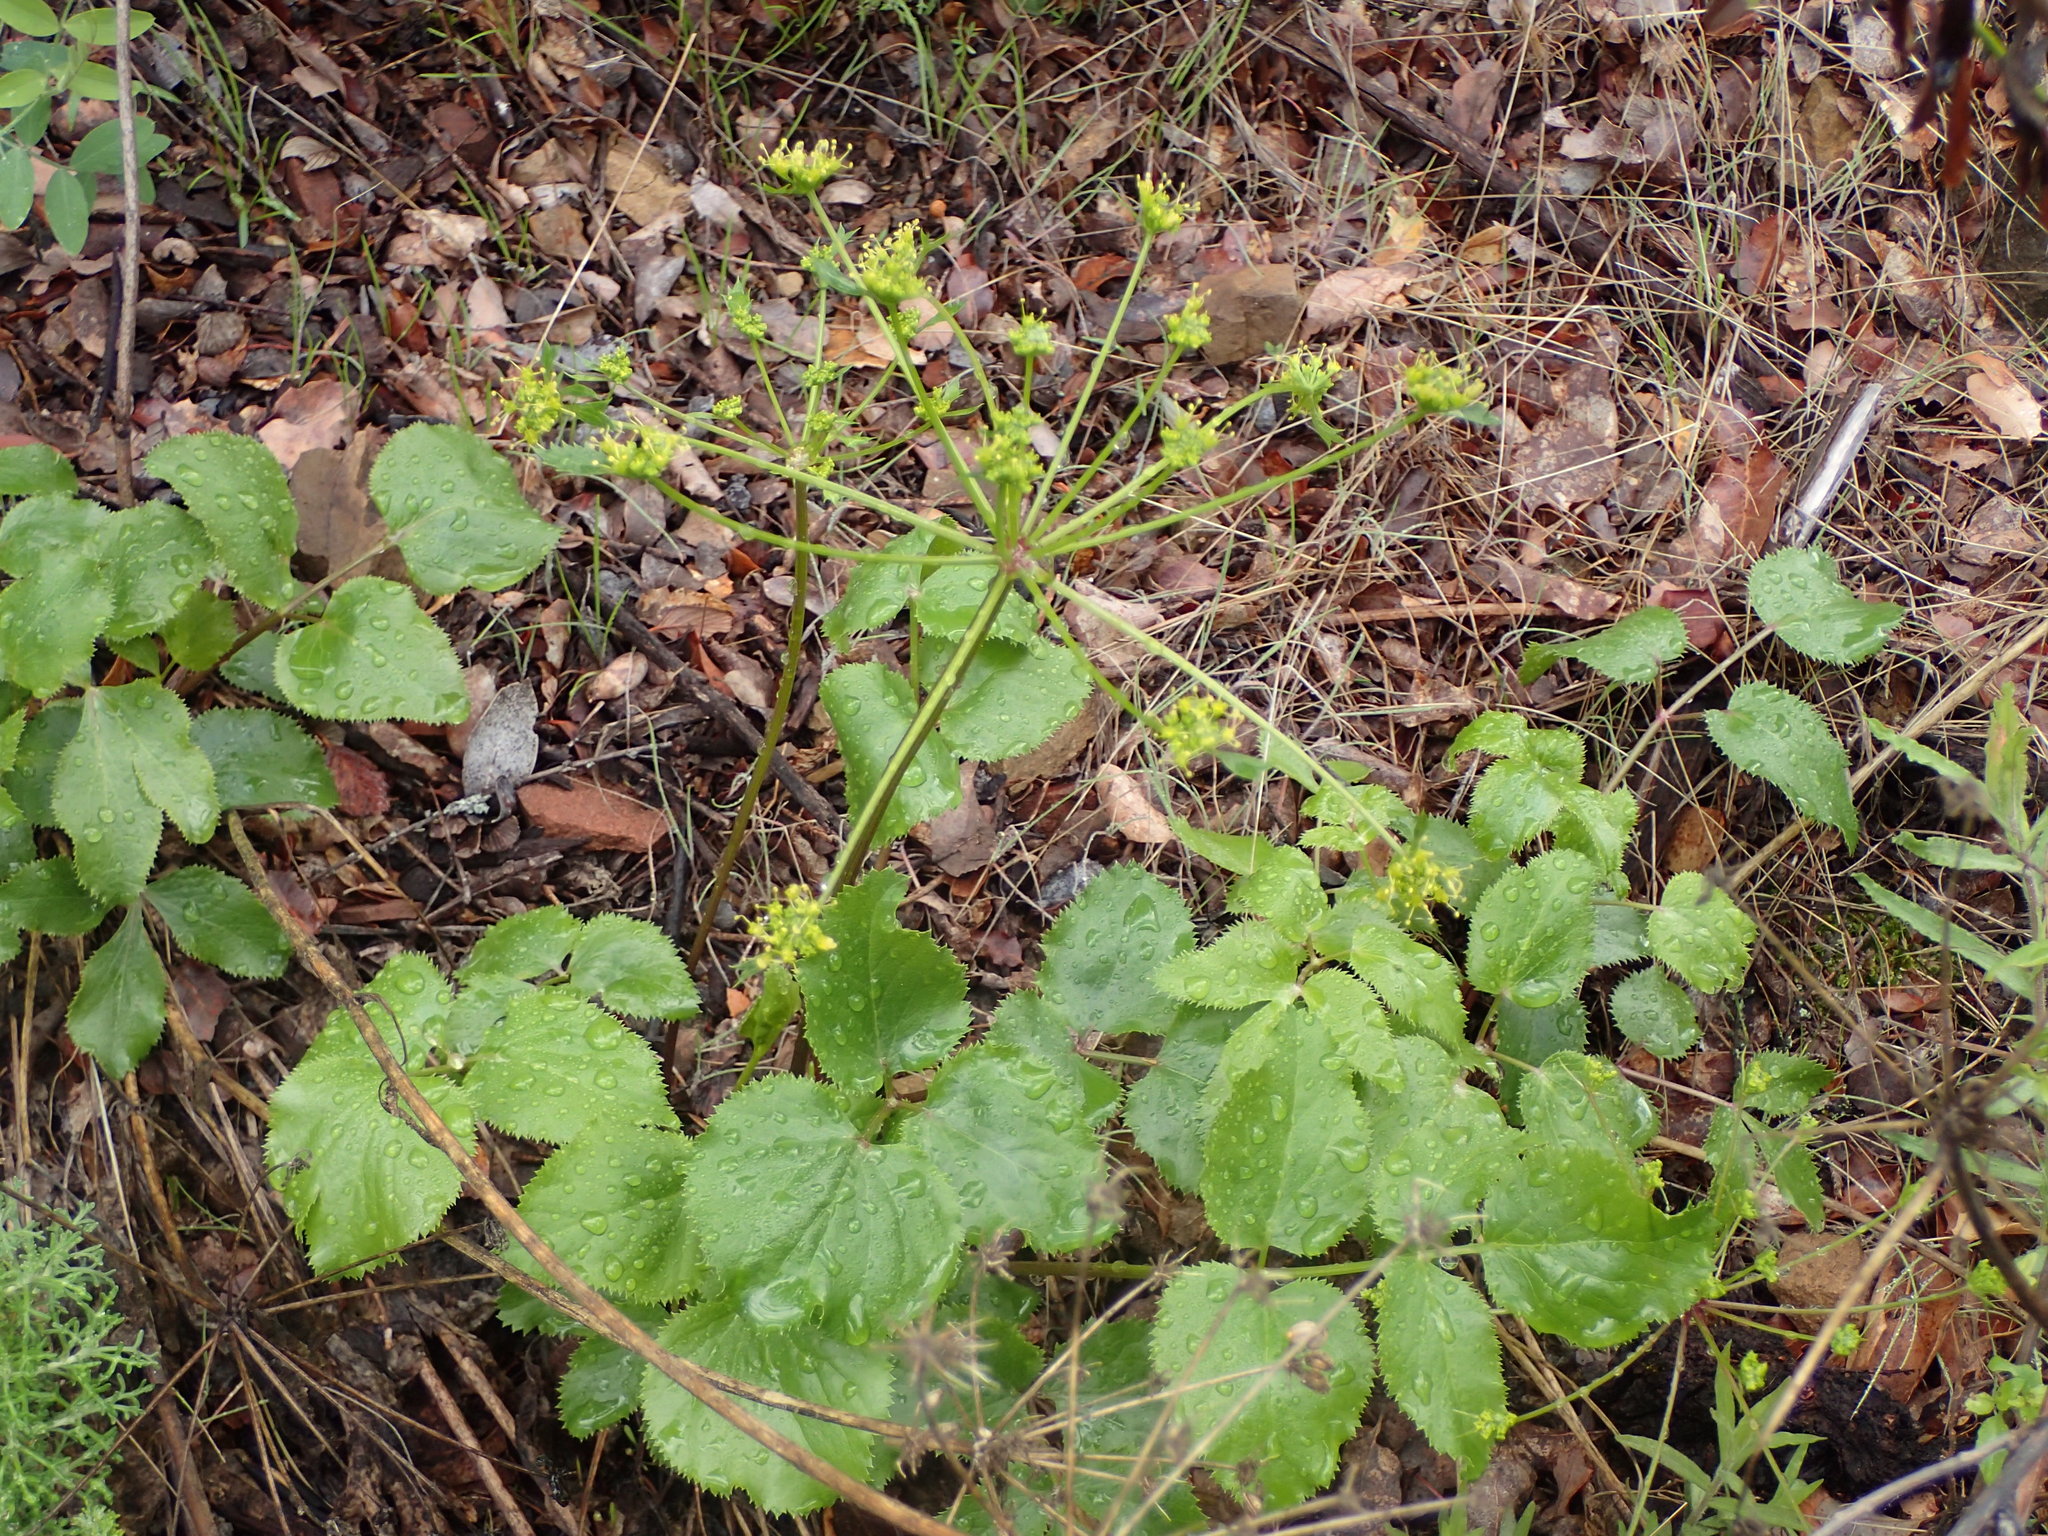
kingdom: Plantae
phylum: Tracheophyta
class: Magnoliopsida
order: Apiales
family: Apiaceae
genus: Tauschia
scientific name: Tauschia arguta
